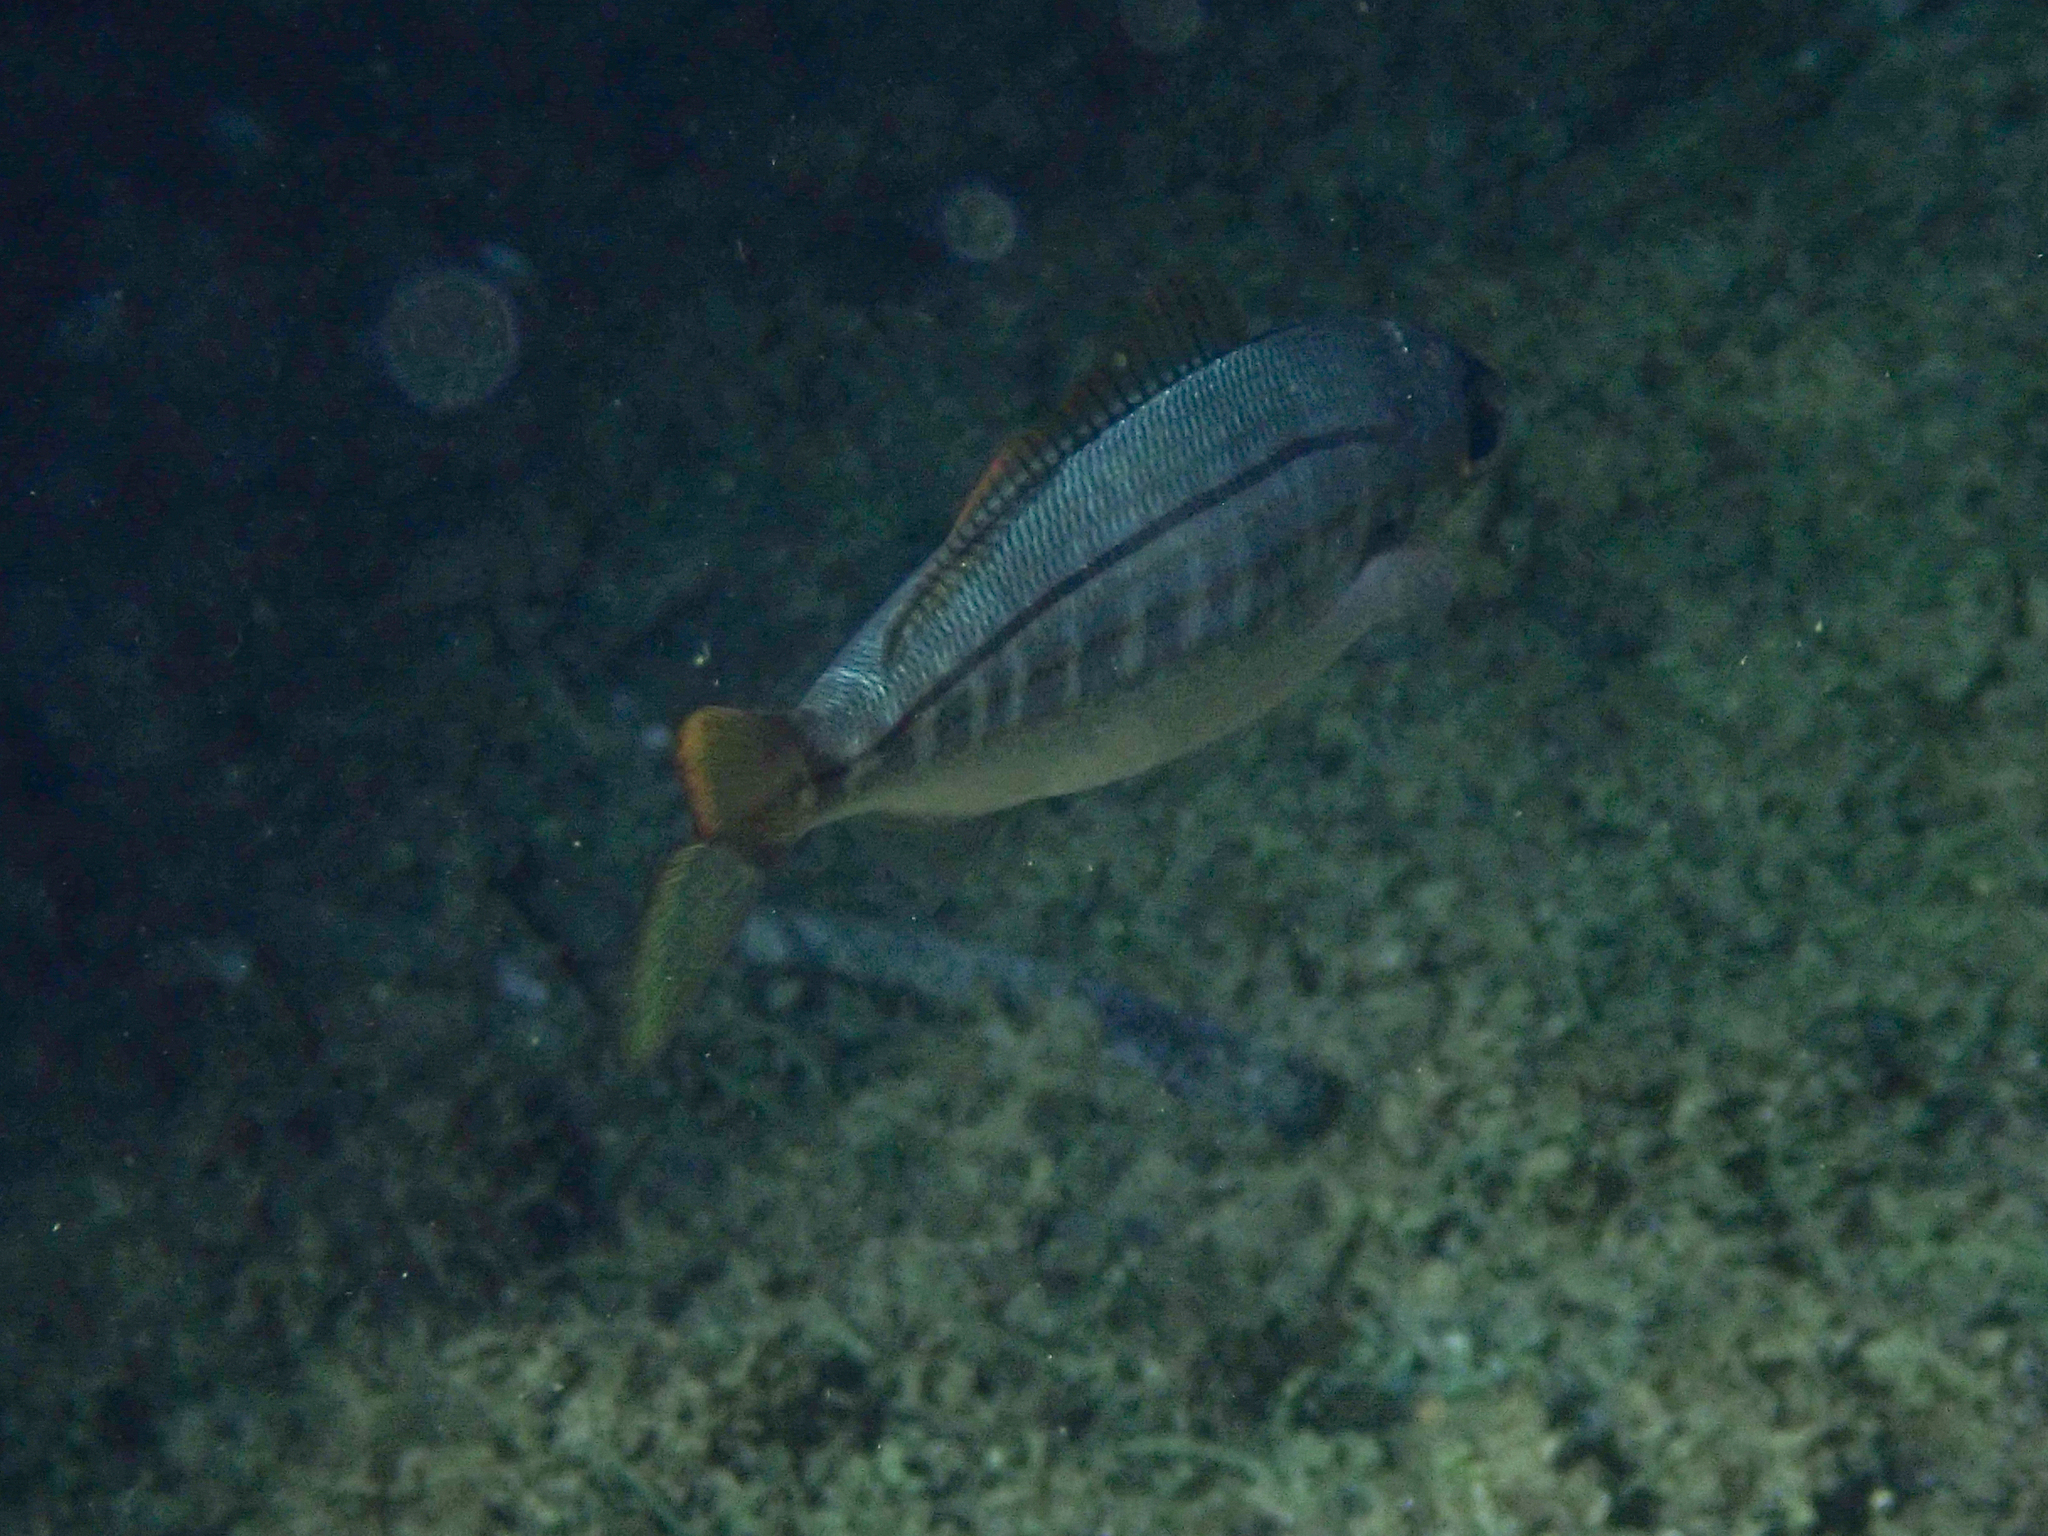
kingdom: Animalia
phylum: Chordata
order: Perciformes
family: Sparidae
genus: Boops
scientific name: Boops boops
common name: Bogue
